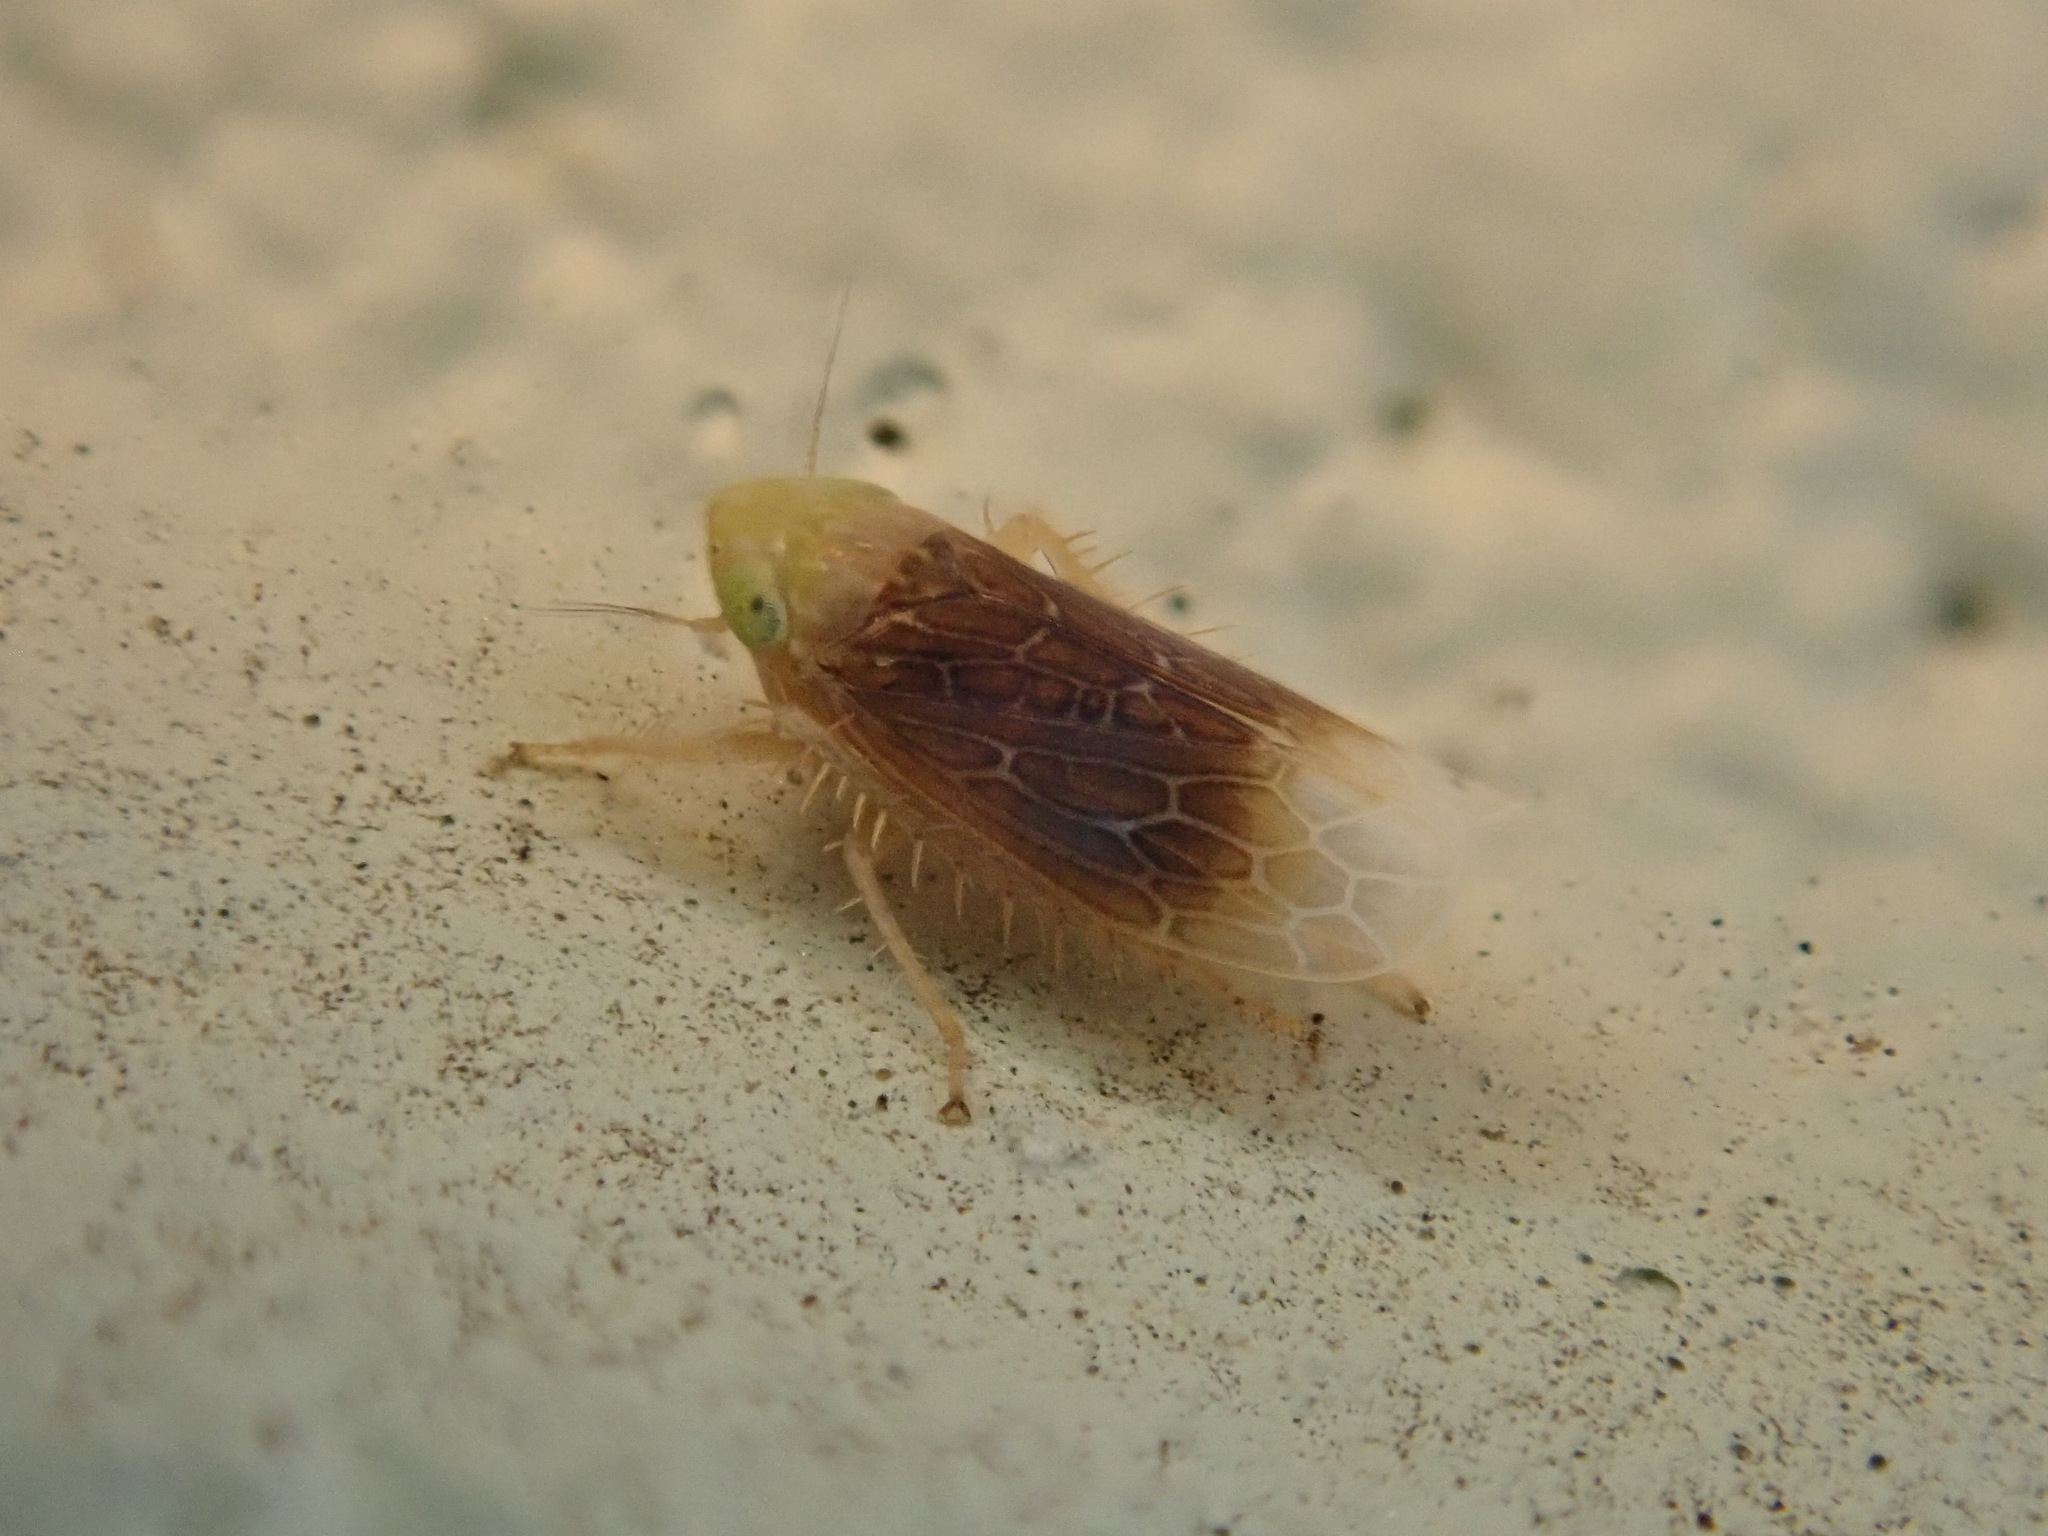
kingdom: Animalia
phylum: Arthropoda
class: Insecta
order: Hemiptera
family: Cicadellidae
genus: Polyamia
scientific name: Polyamia apicata
